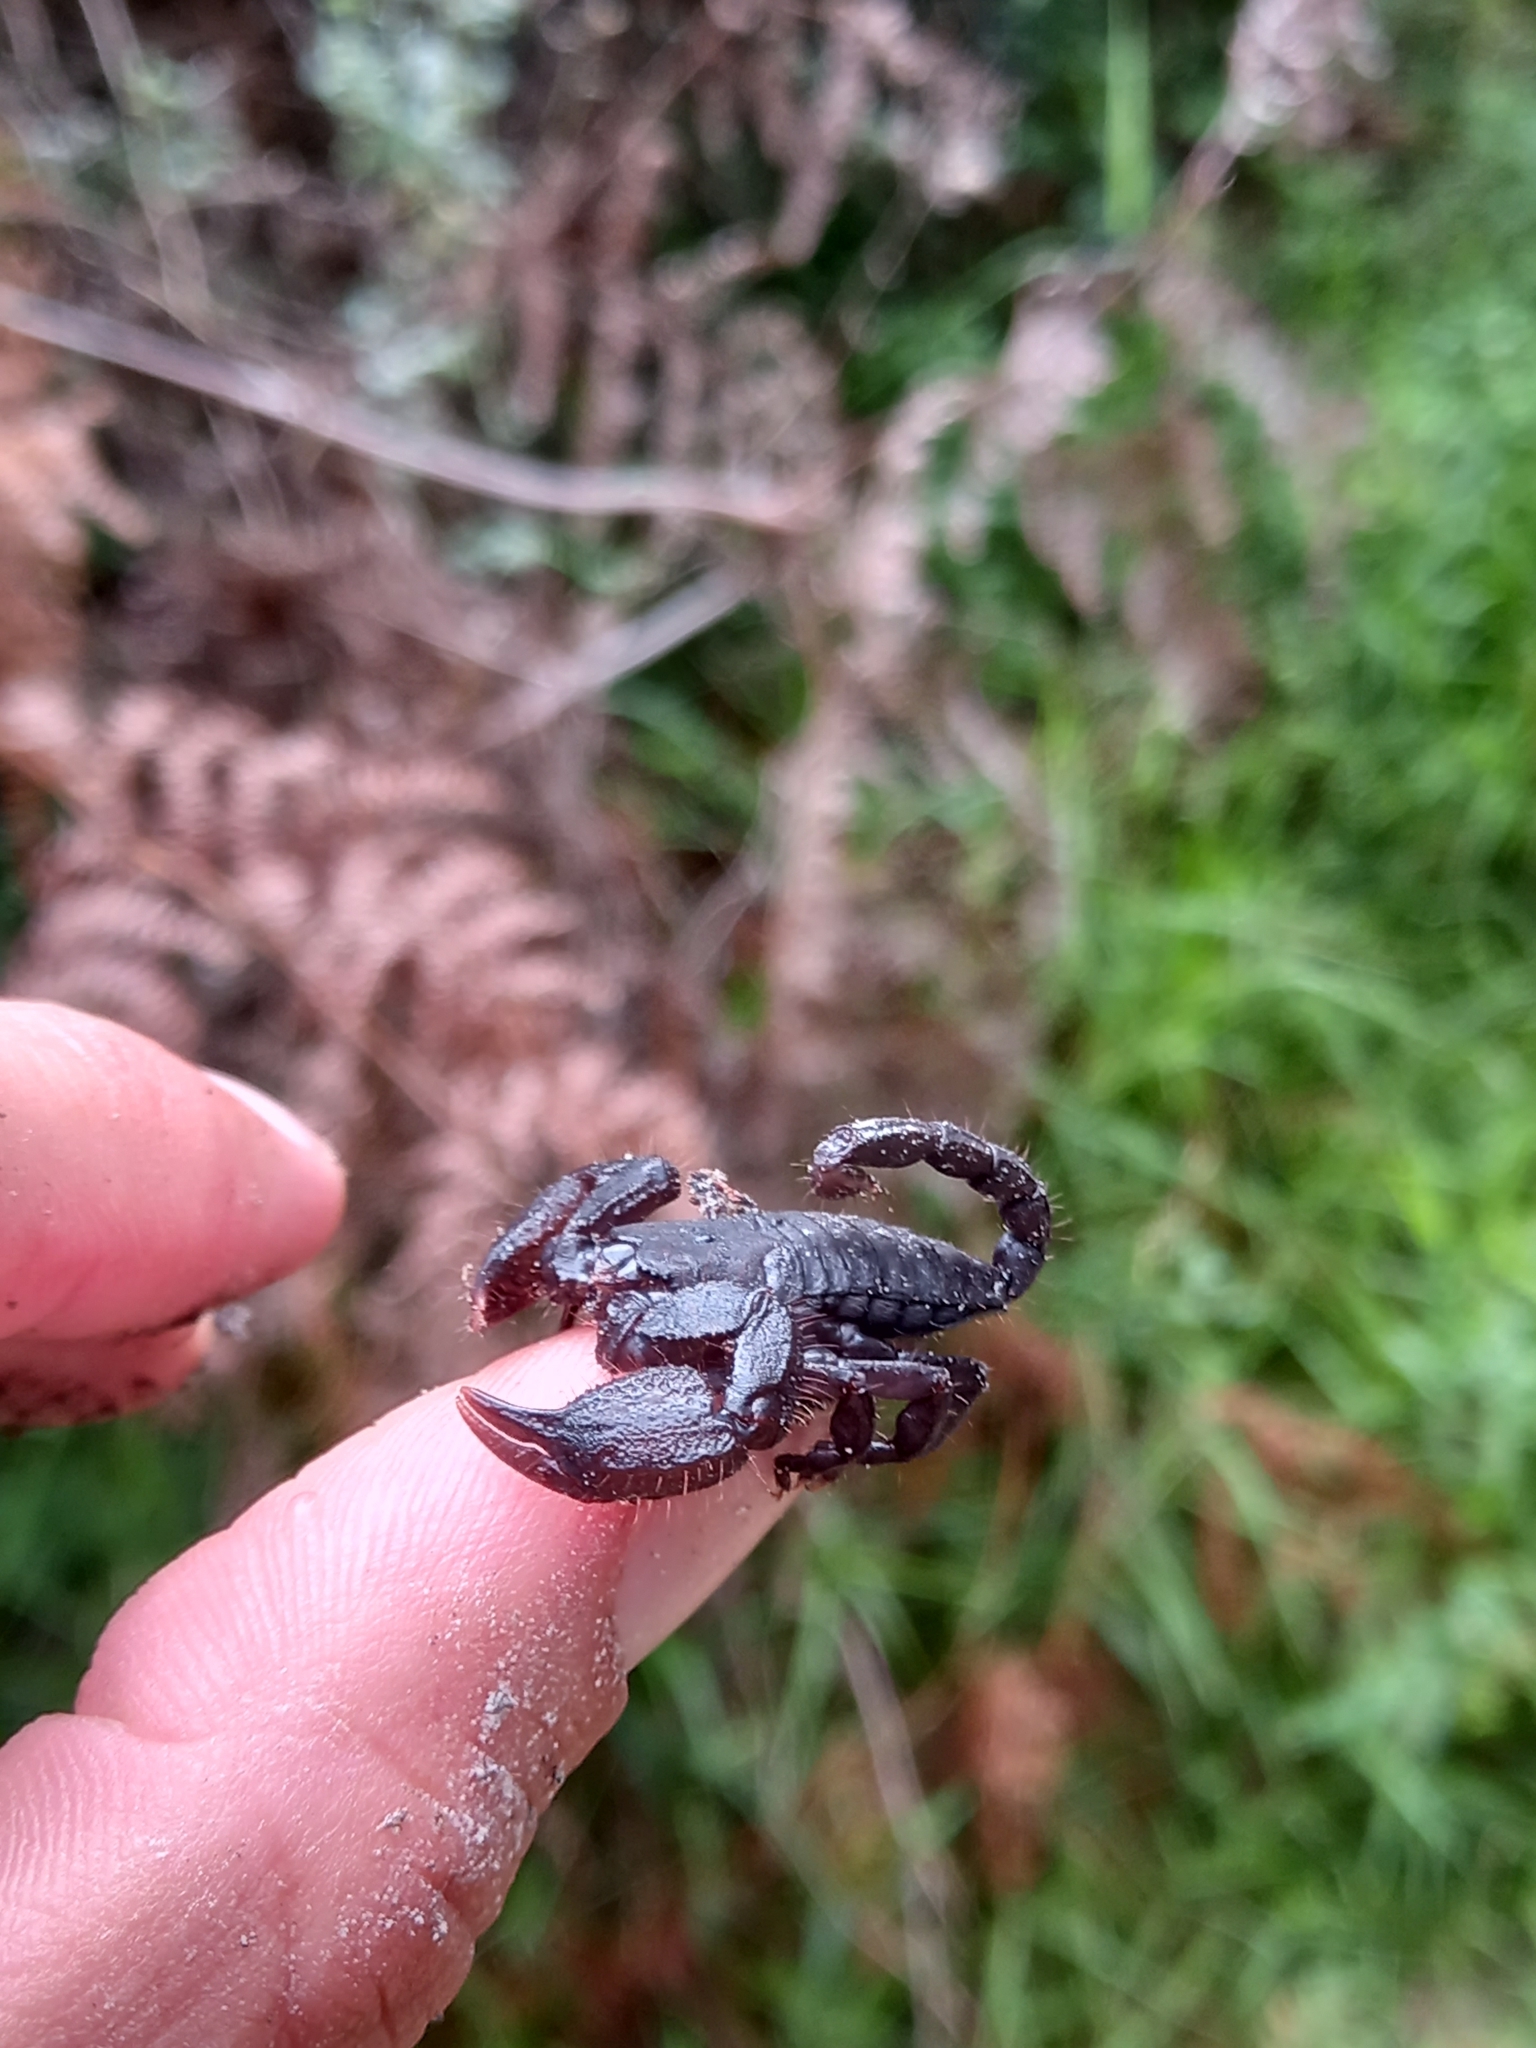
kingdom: Animalia
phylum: Arthropoda
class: Arachnida
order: Scorpiones
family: Hormuridae
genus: Opisthacanthus
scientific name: Opisthacanthus capensis
